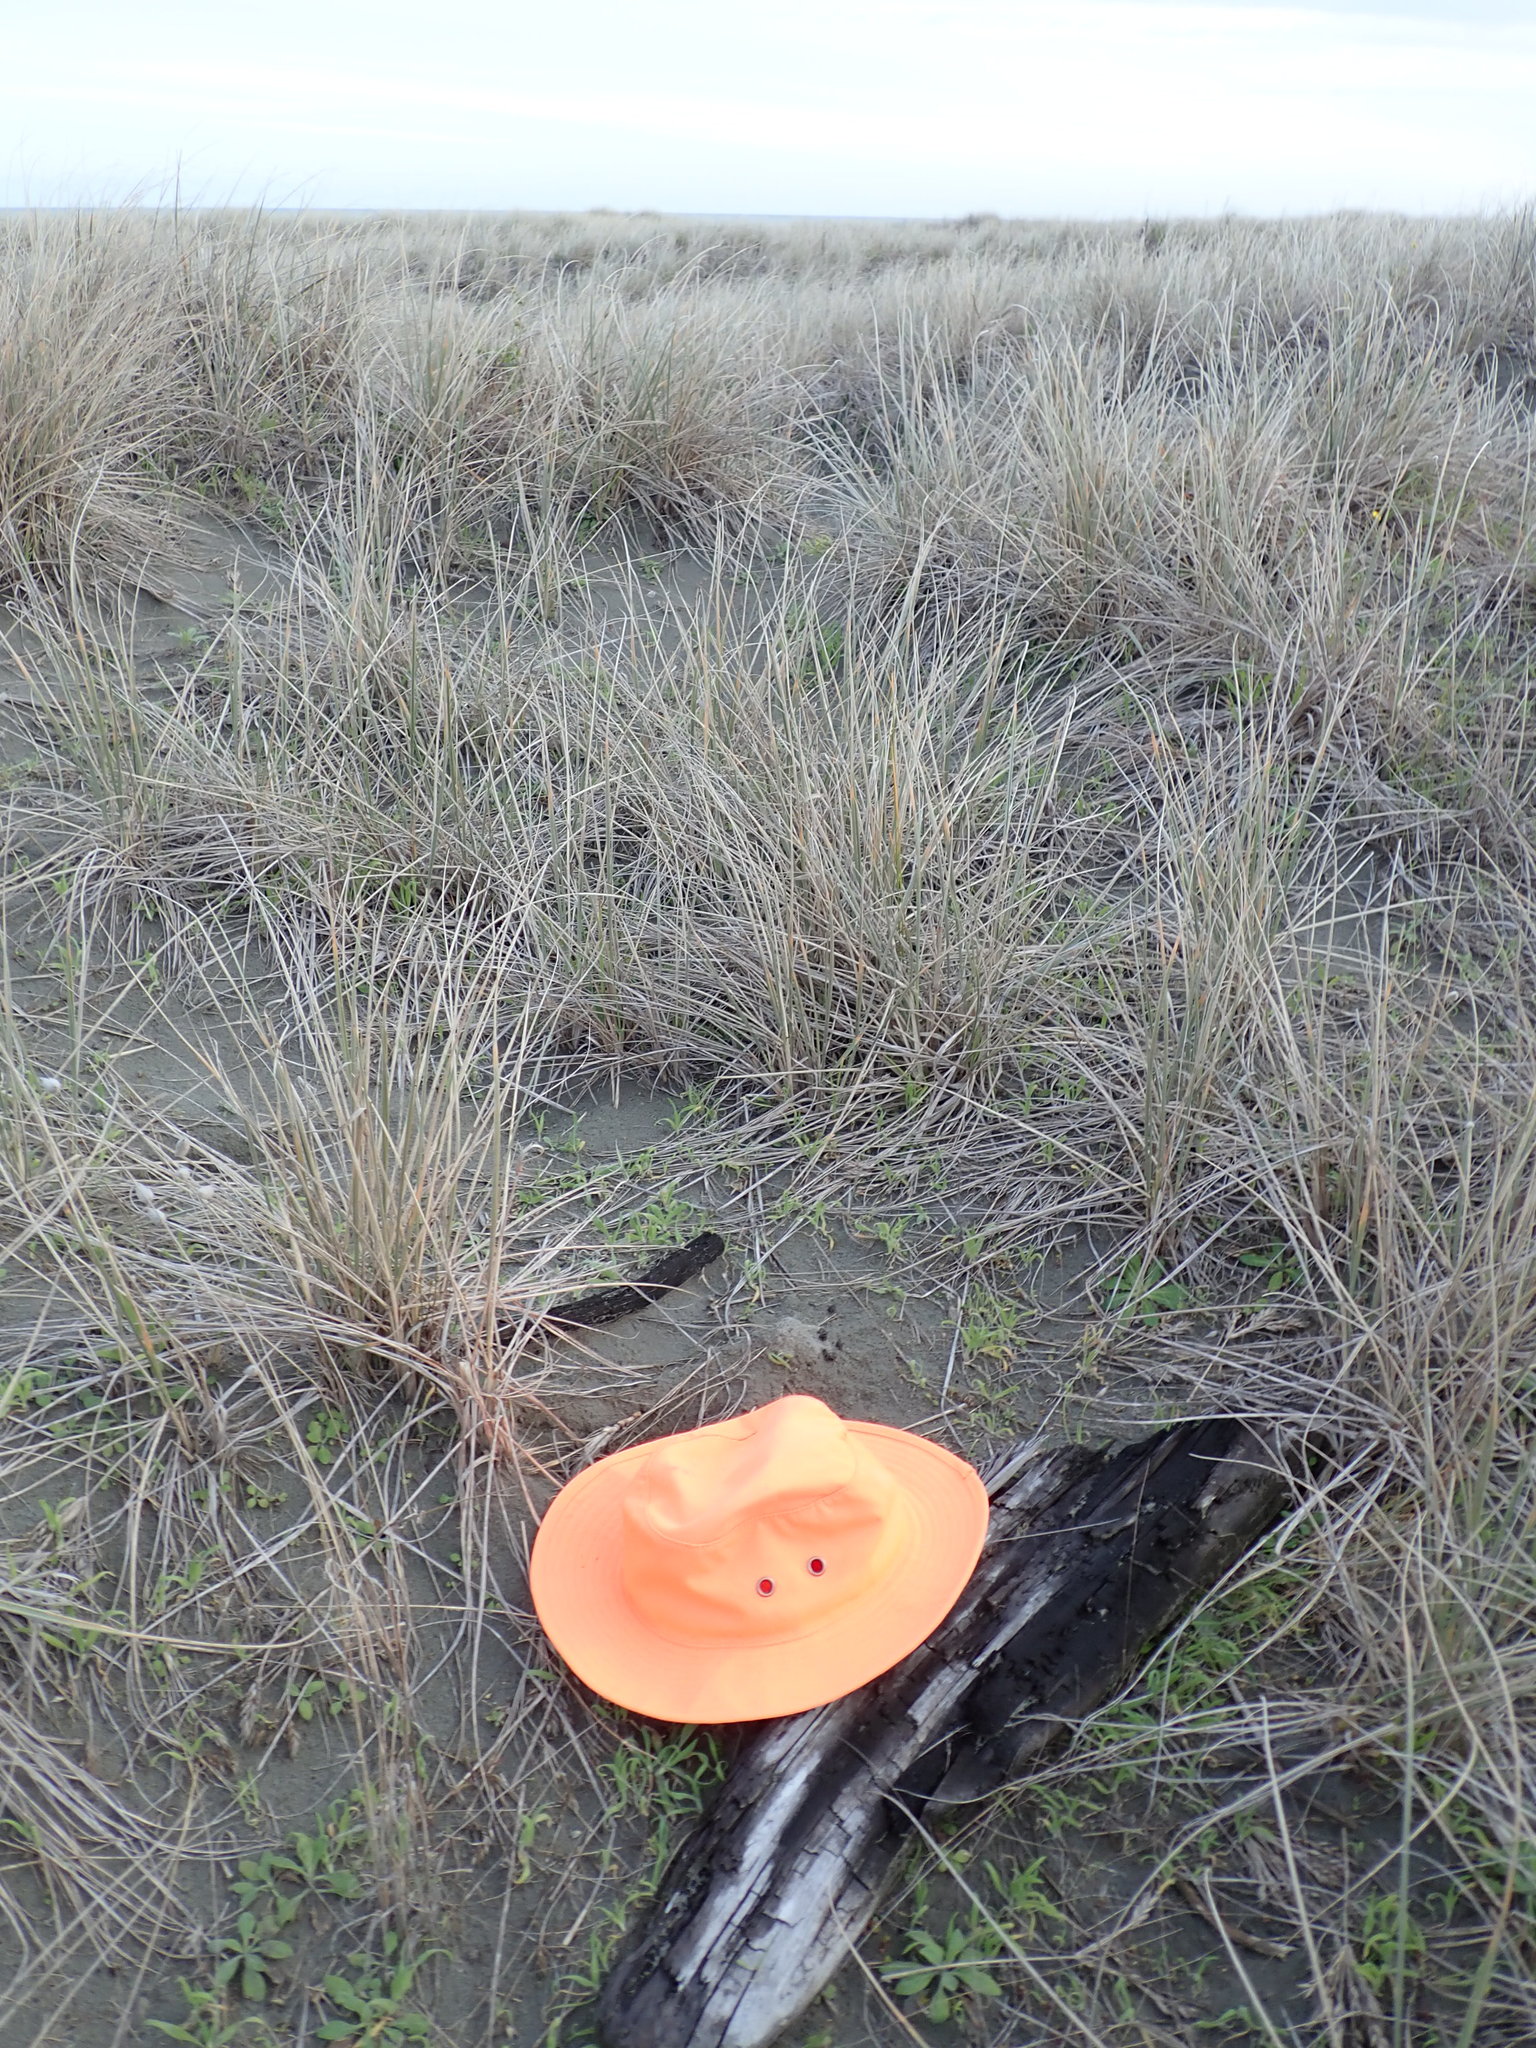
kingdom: Animalia
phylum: Arthropoda
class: Malacostraca
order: Isopoda
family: Porcellionidae
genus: Porcellio
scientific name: Porcellio scaber
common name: Common rough woodlouse
